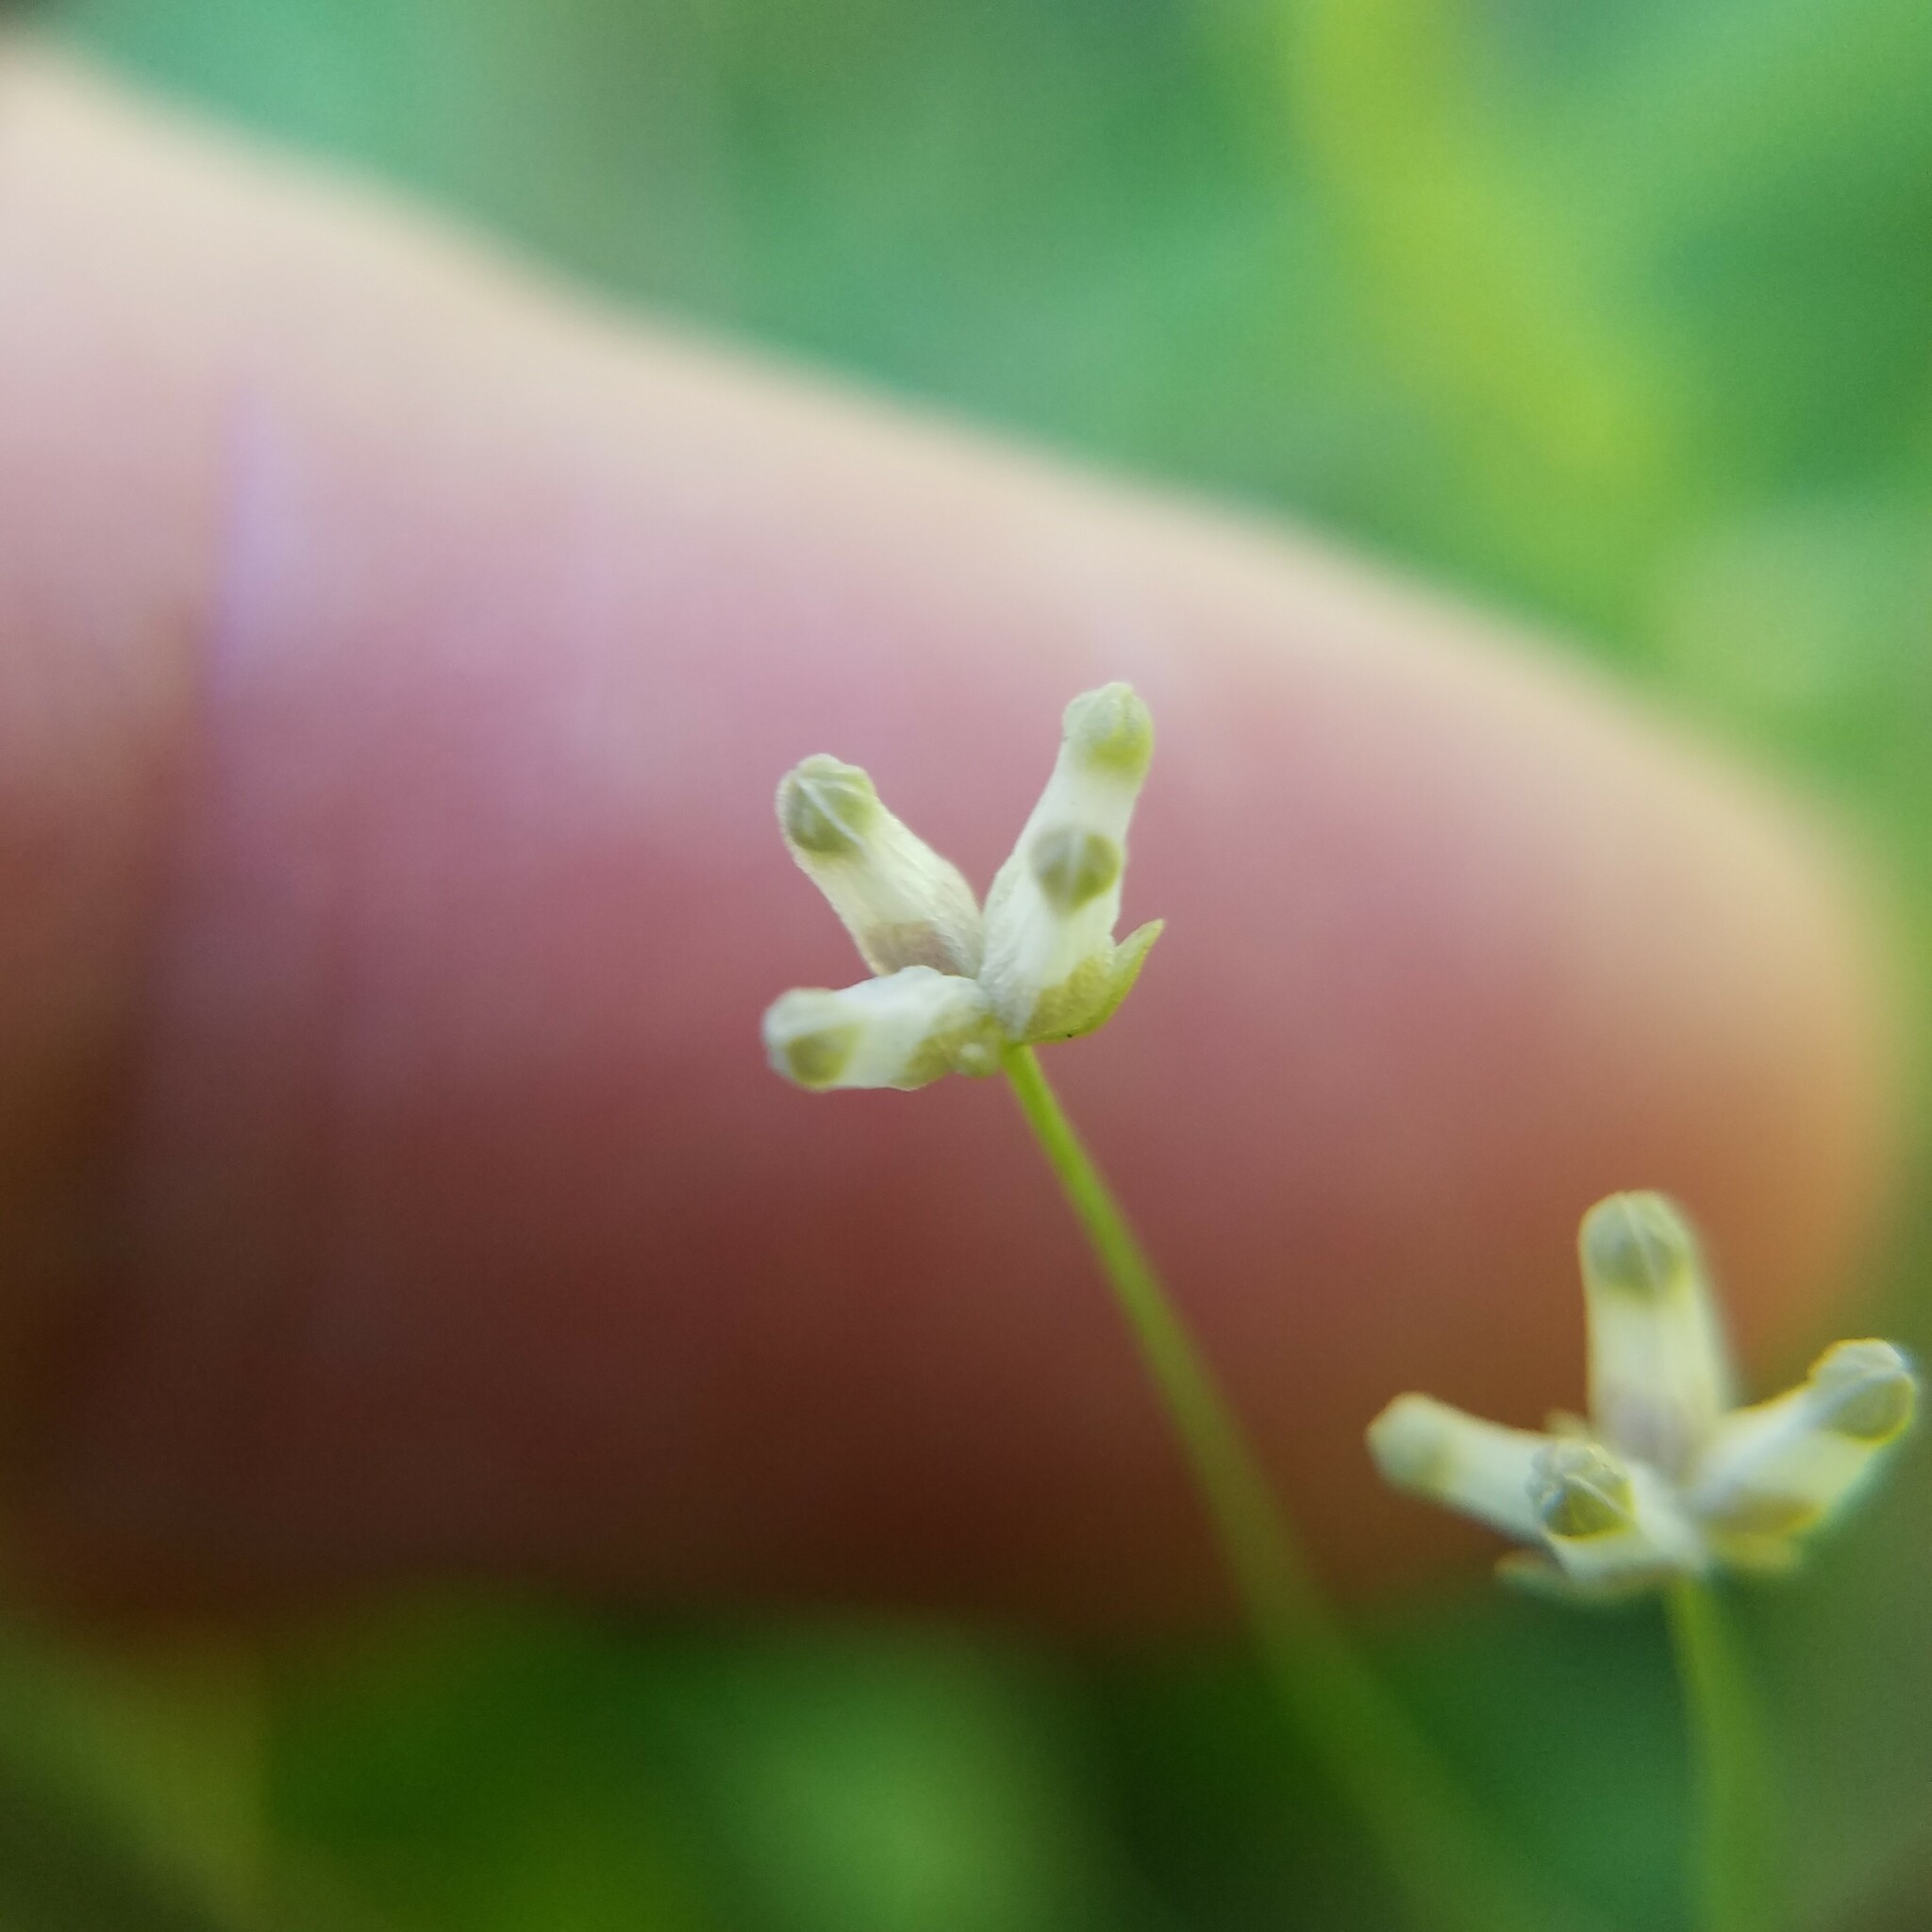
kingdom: Plantae
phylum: Tracheophyta
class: Liliopsida
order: Dioscoreales
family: Burmanniaceae
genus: Burmannia
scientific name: Burmannia capitata
